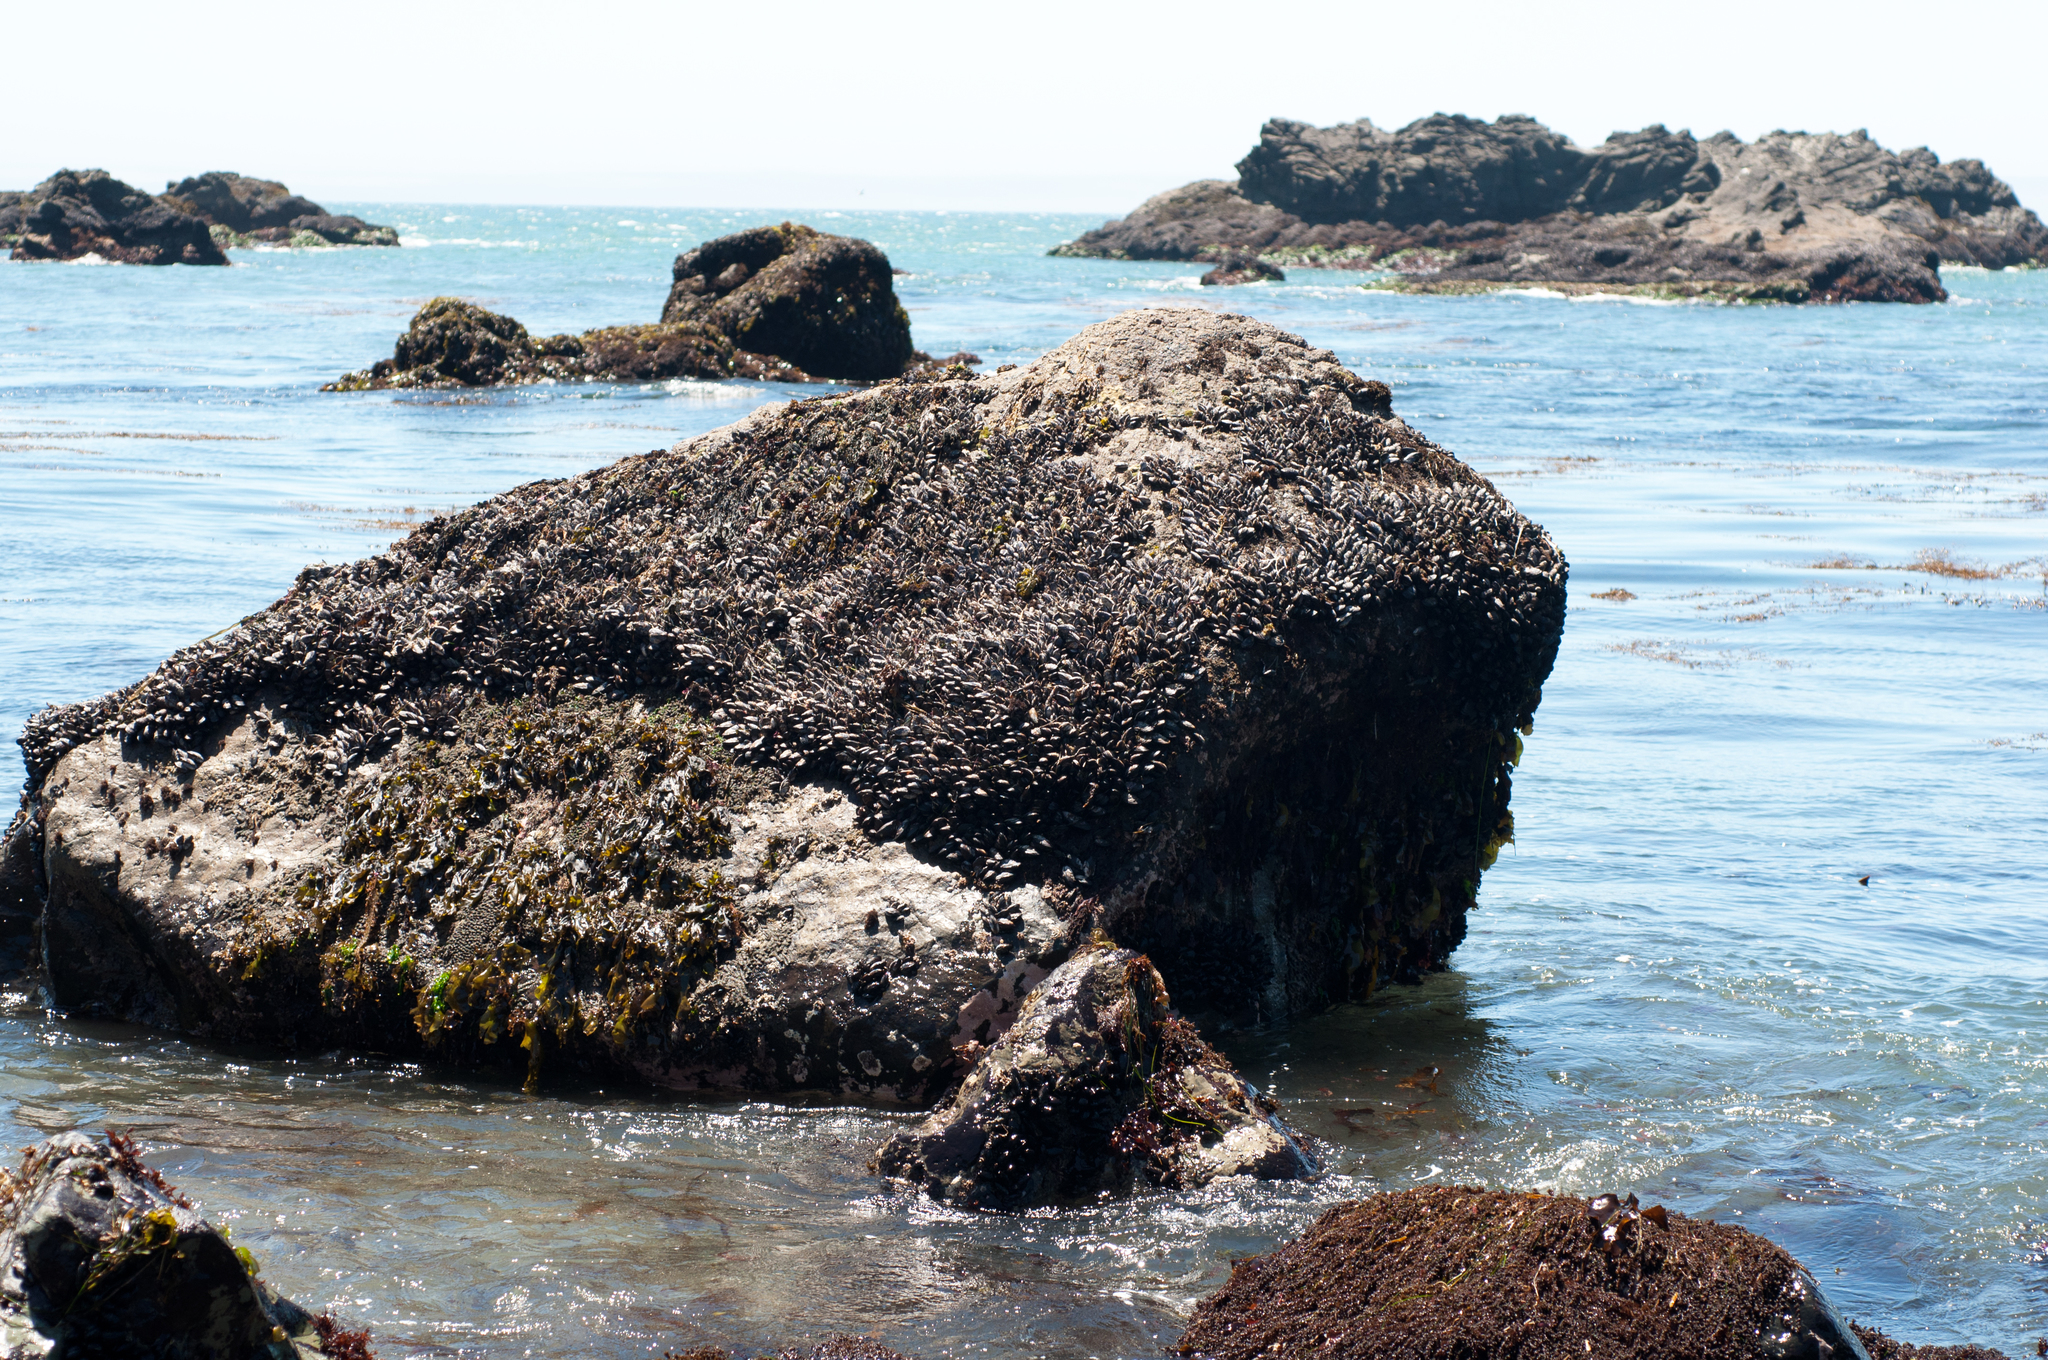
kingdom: Animalia
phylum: Mollusca
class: Bivalvia
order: Mytilida
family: Mytilidae
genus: Mytilus
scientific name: Mytilus californianus
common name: California mussel
